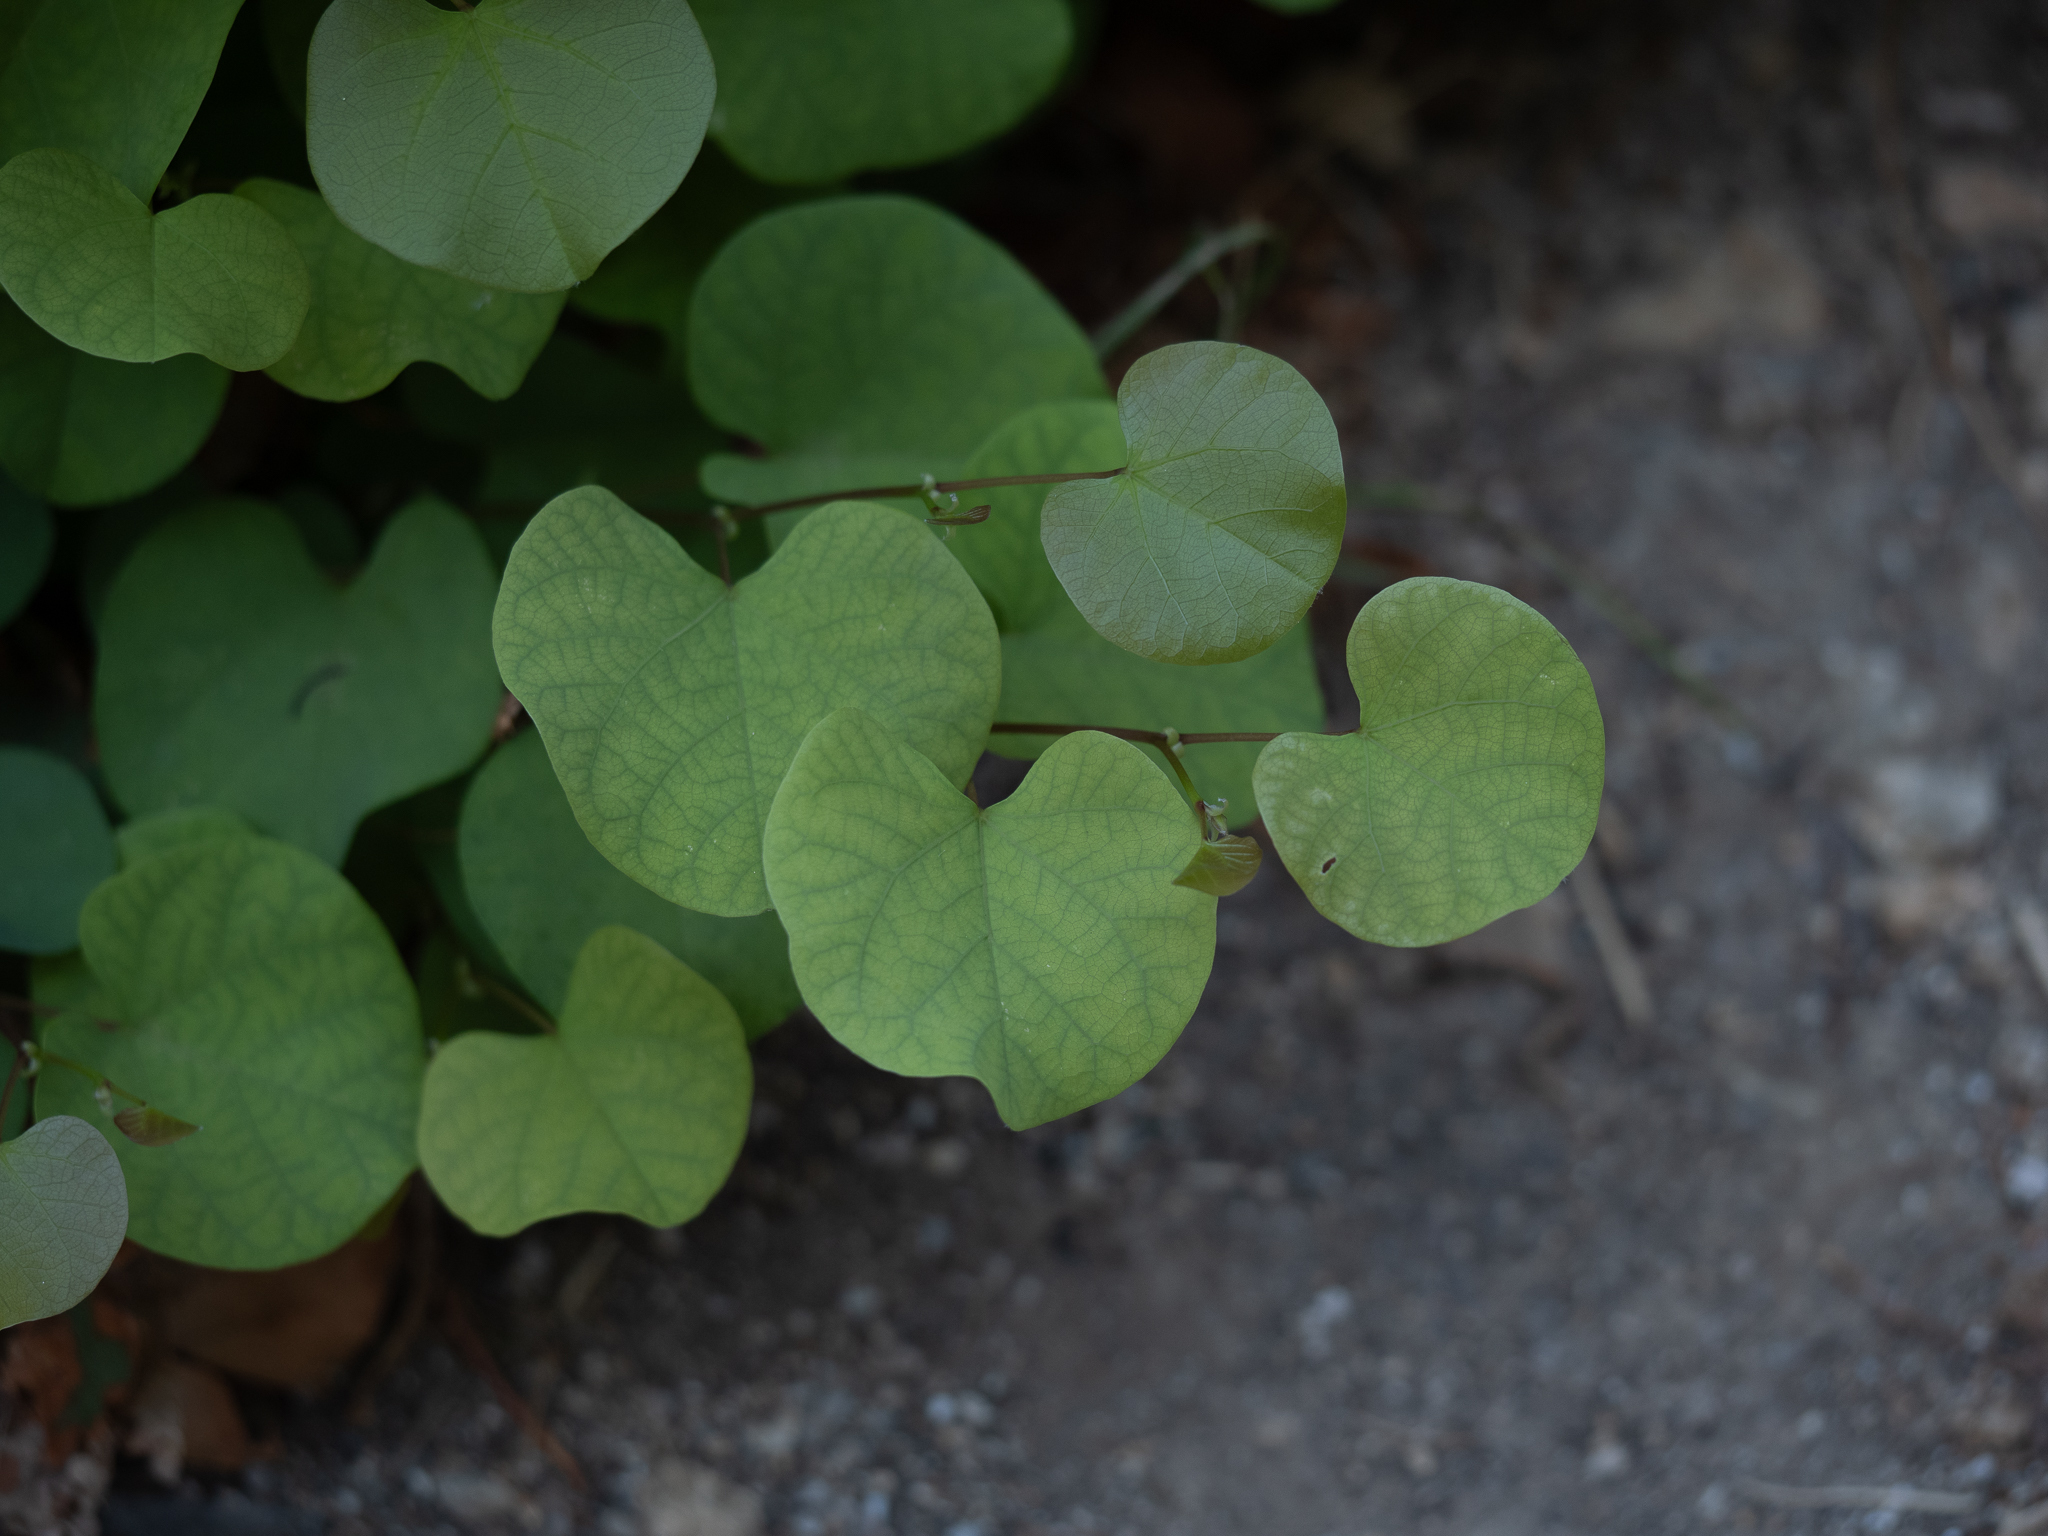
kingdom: Plantae
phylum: Tracheophyta
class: Magnoliopsida
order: Fabales
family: Fabaceae
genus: Cercis
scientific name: Cercis siliquastrum
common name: Judas tree
